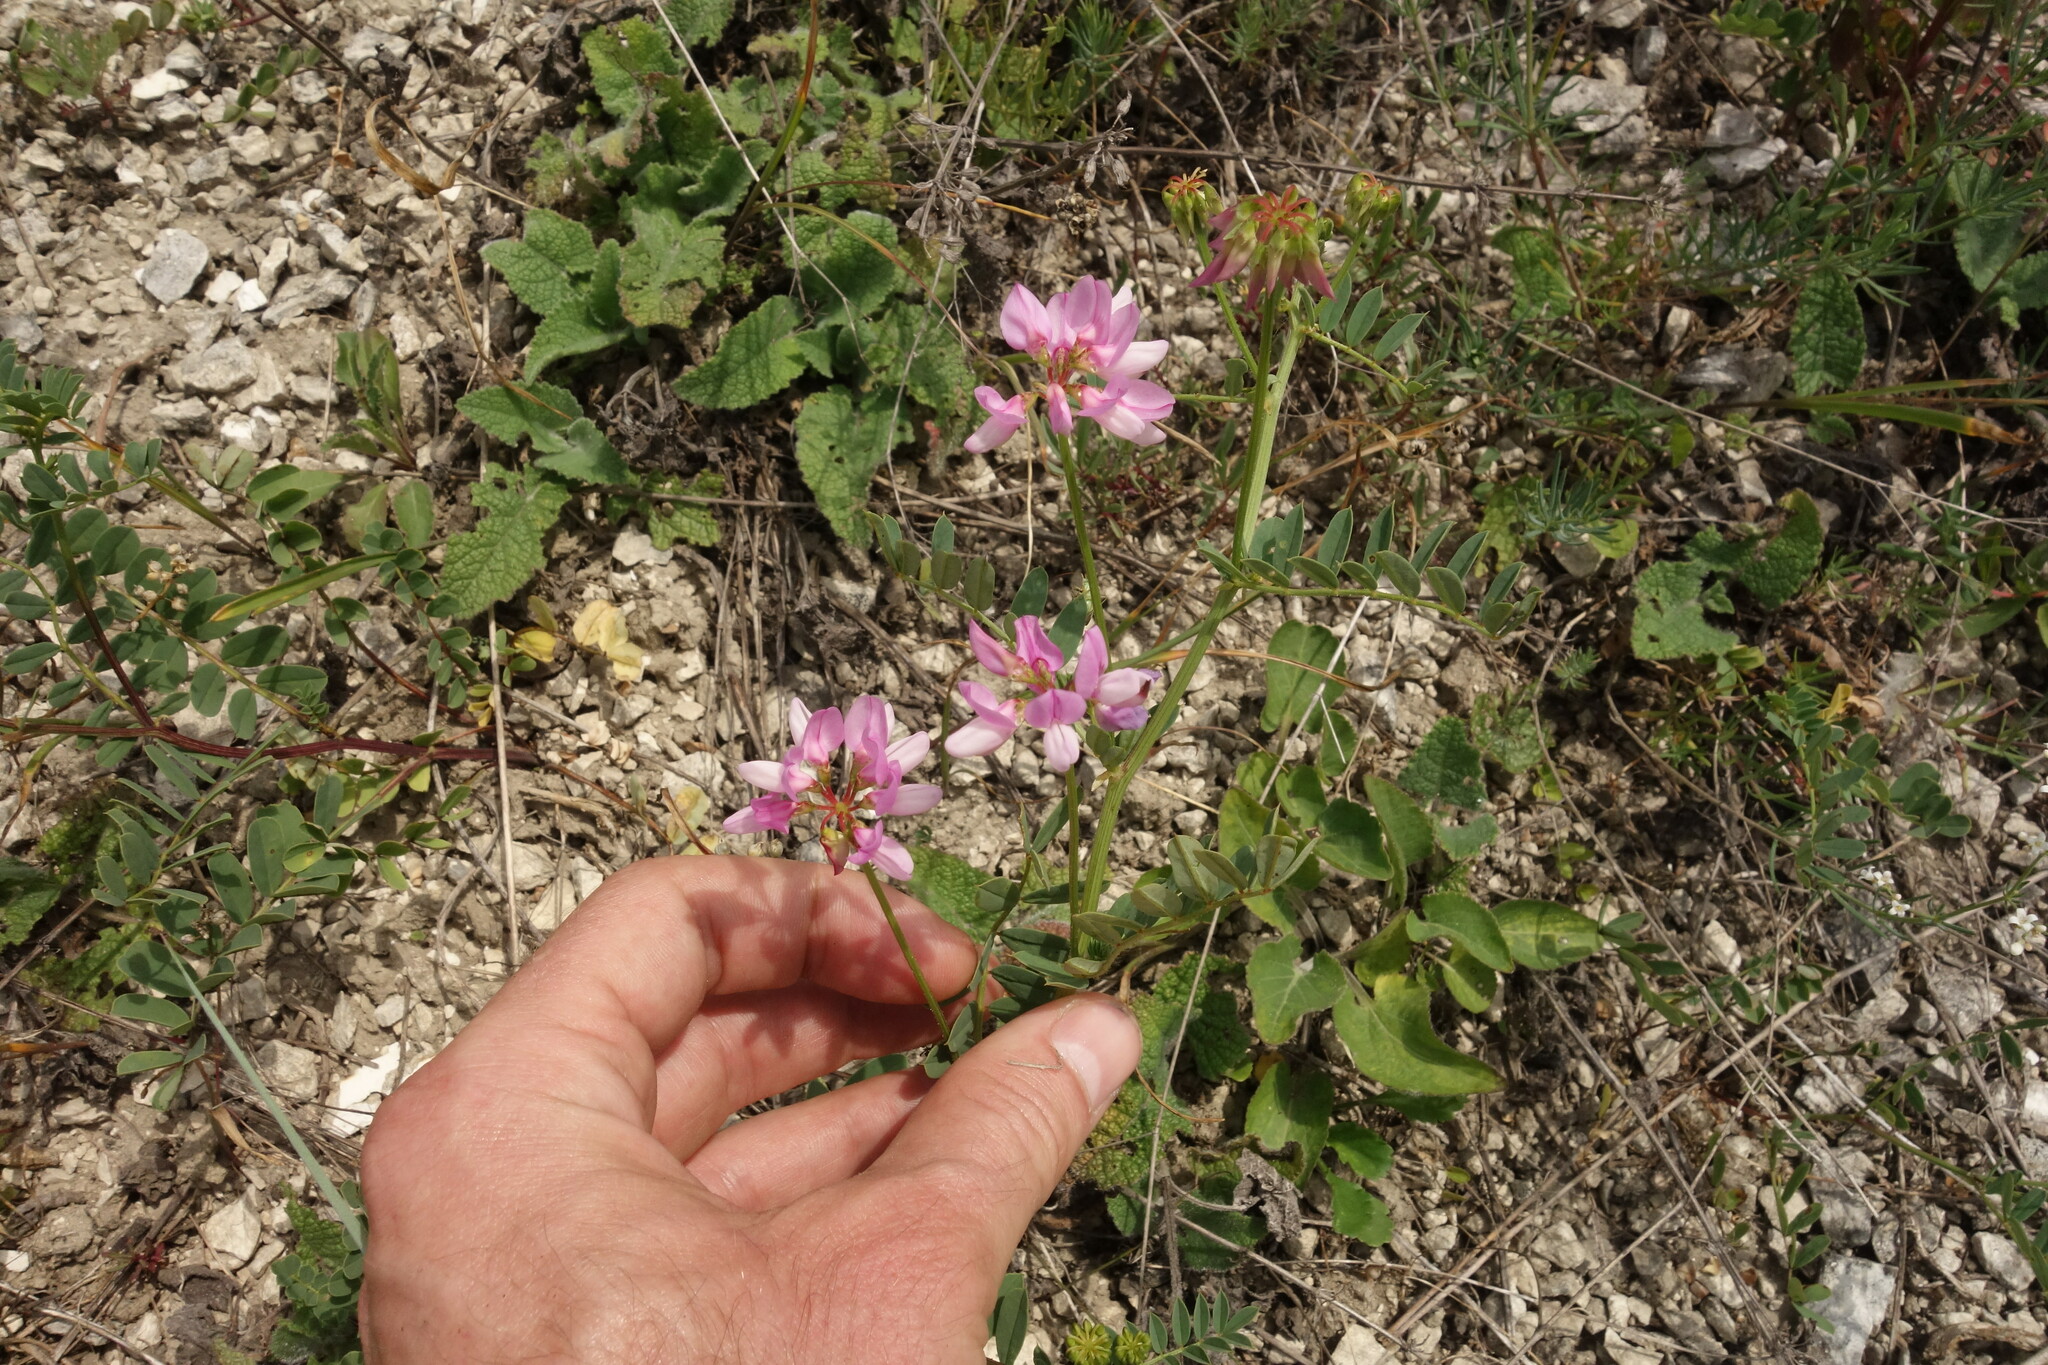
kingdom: Plantae
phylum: Tracheophyta
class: Magnoliopsida
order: Fabales
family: Fabaceae
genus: Coronilla
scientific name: Coronilla varia
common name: Crownvetch
